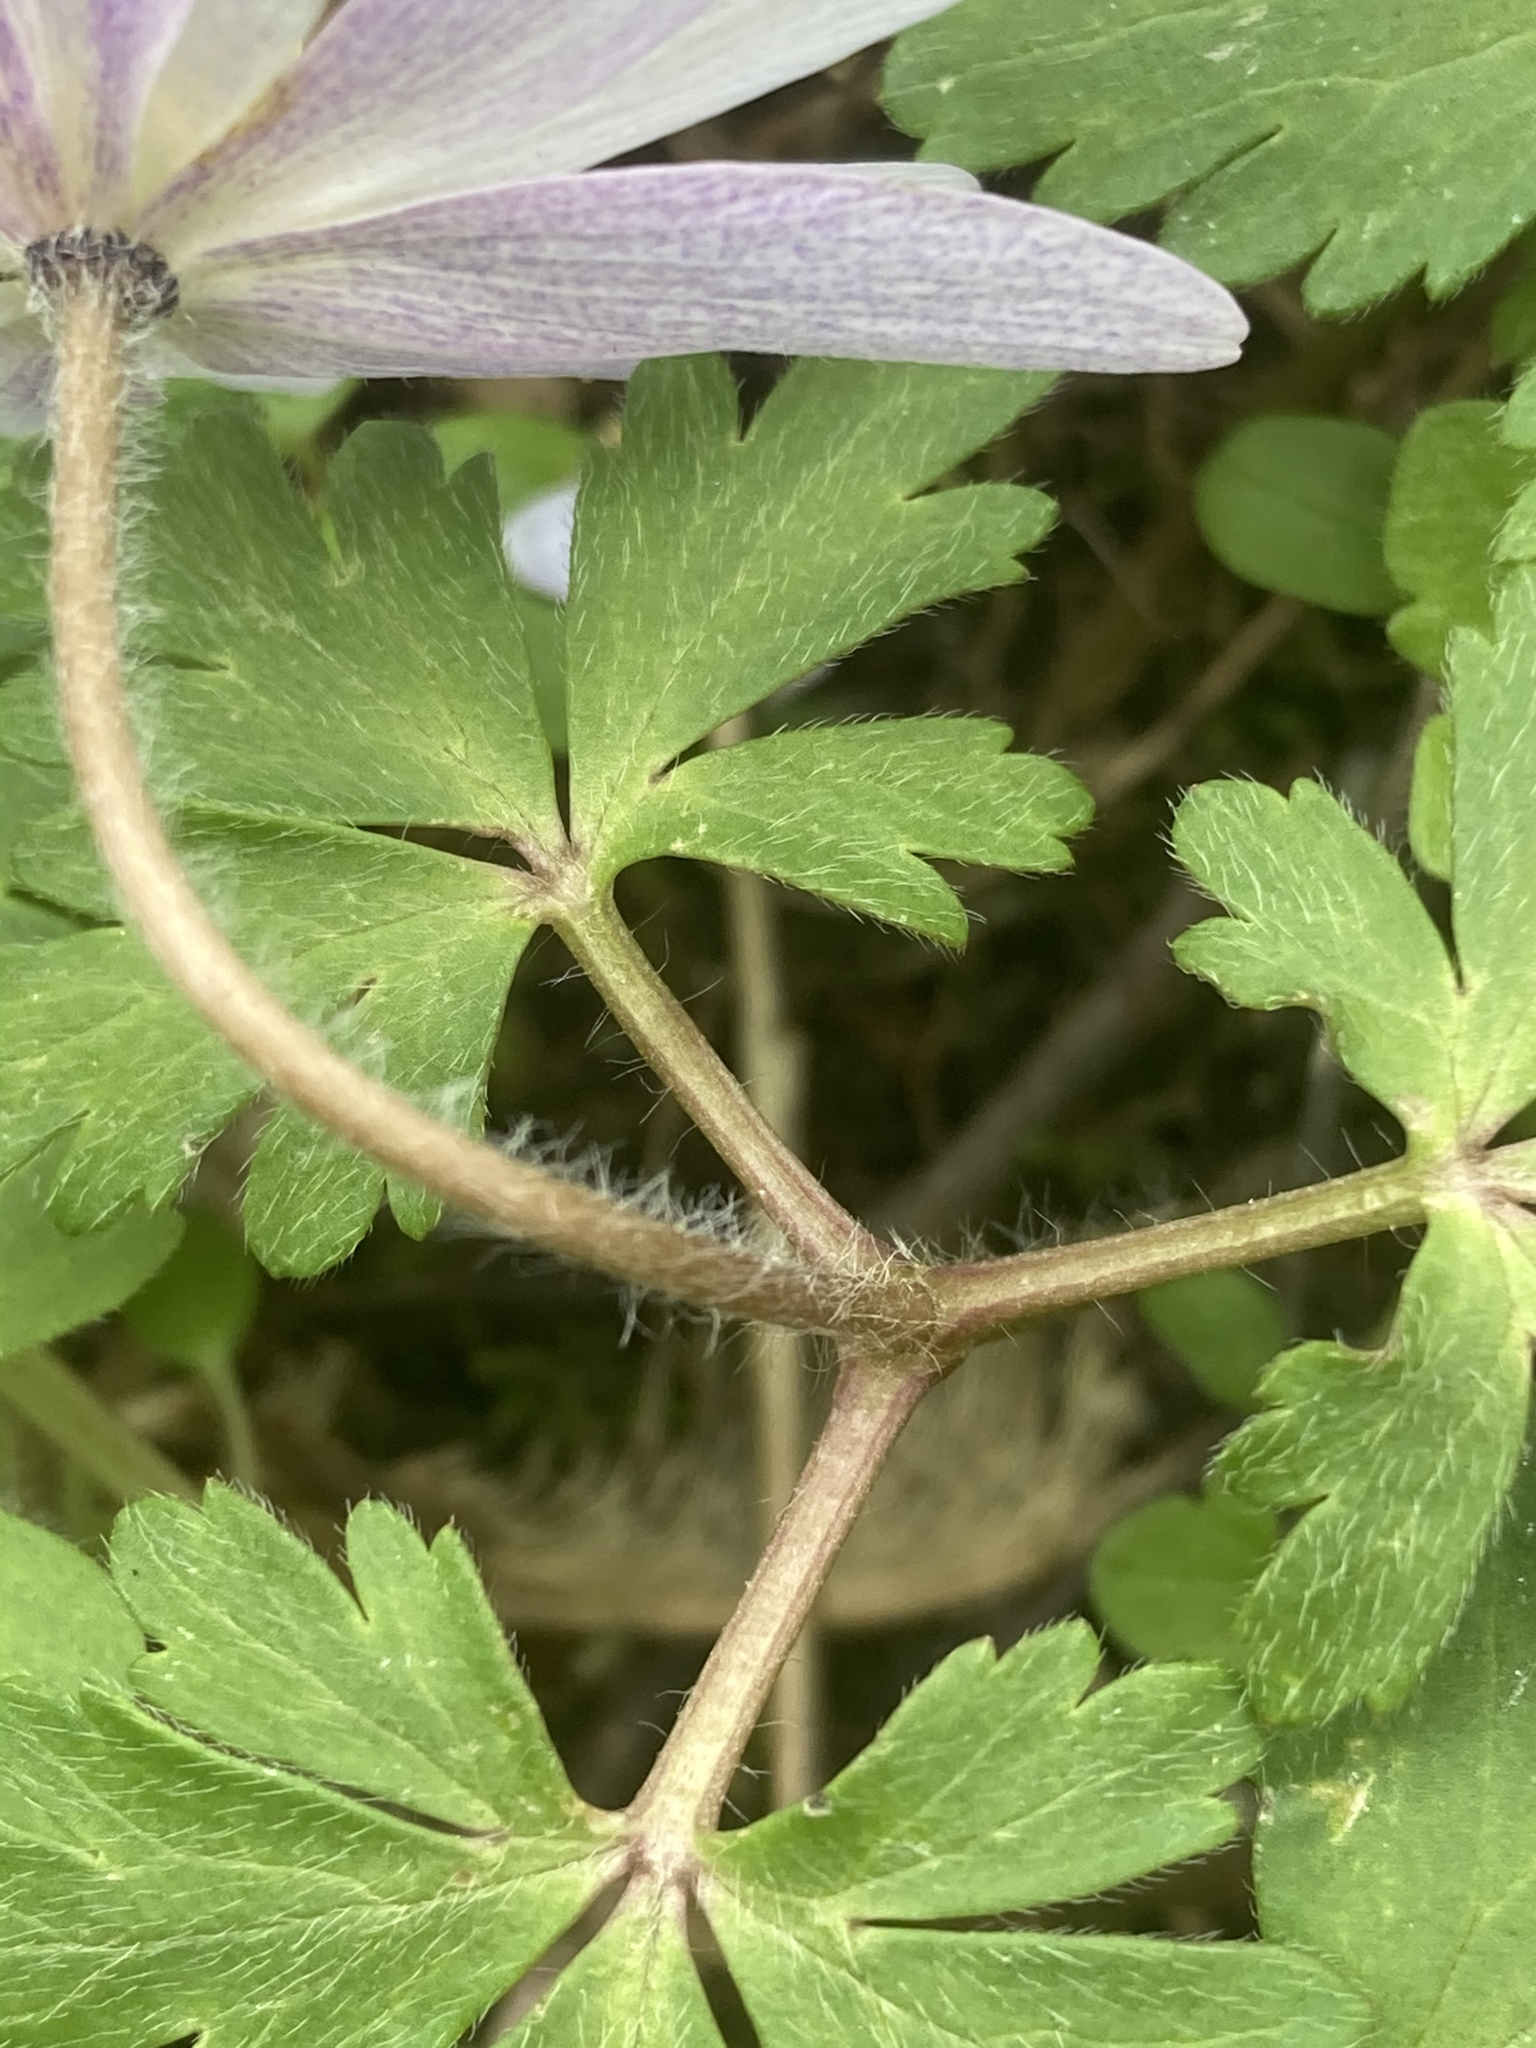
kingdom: Plantae
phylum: Tracheophyta
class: Magnoliopsida
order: Ranunculales
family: Ranunculaceae
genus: Anemone
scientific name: Anemone blanda
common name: Balkan anemone
